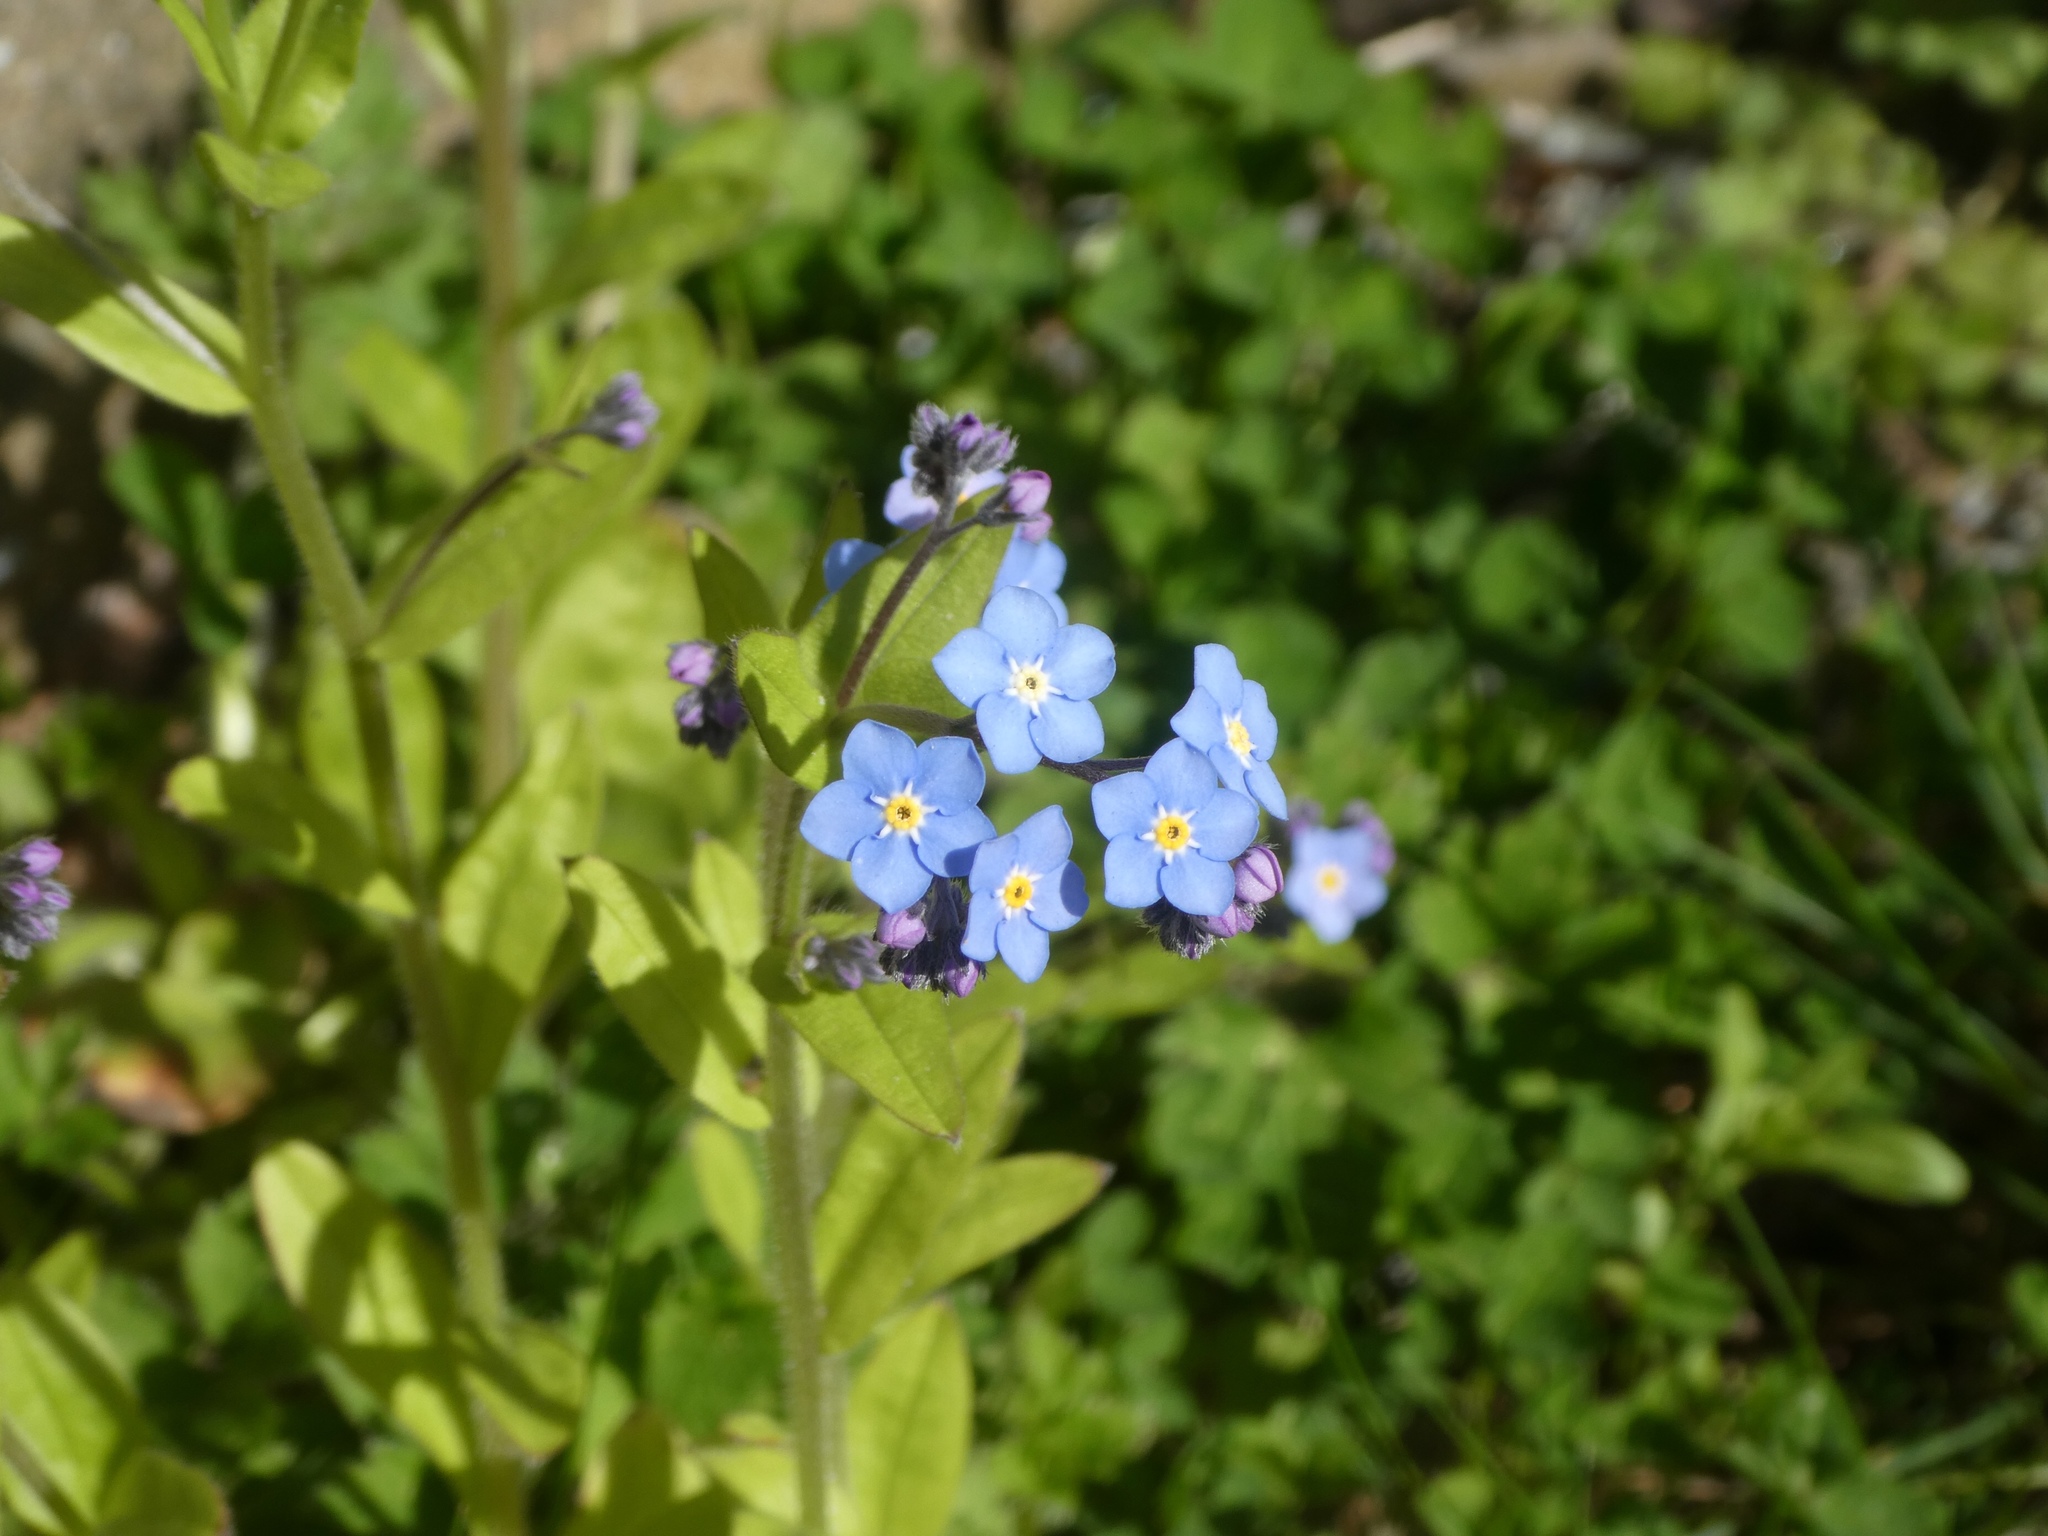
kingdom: Plantae
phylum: Tracheophyta
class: Magnoliopsida
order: Boraginales
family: Boraginaceae
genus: Myosotis
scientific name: Myosotis sylvatica
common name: Wood forget-me-not
